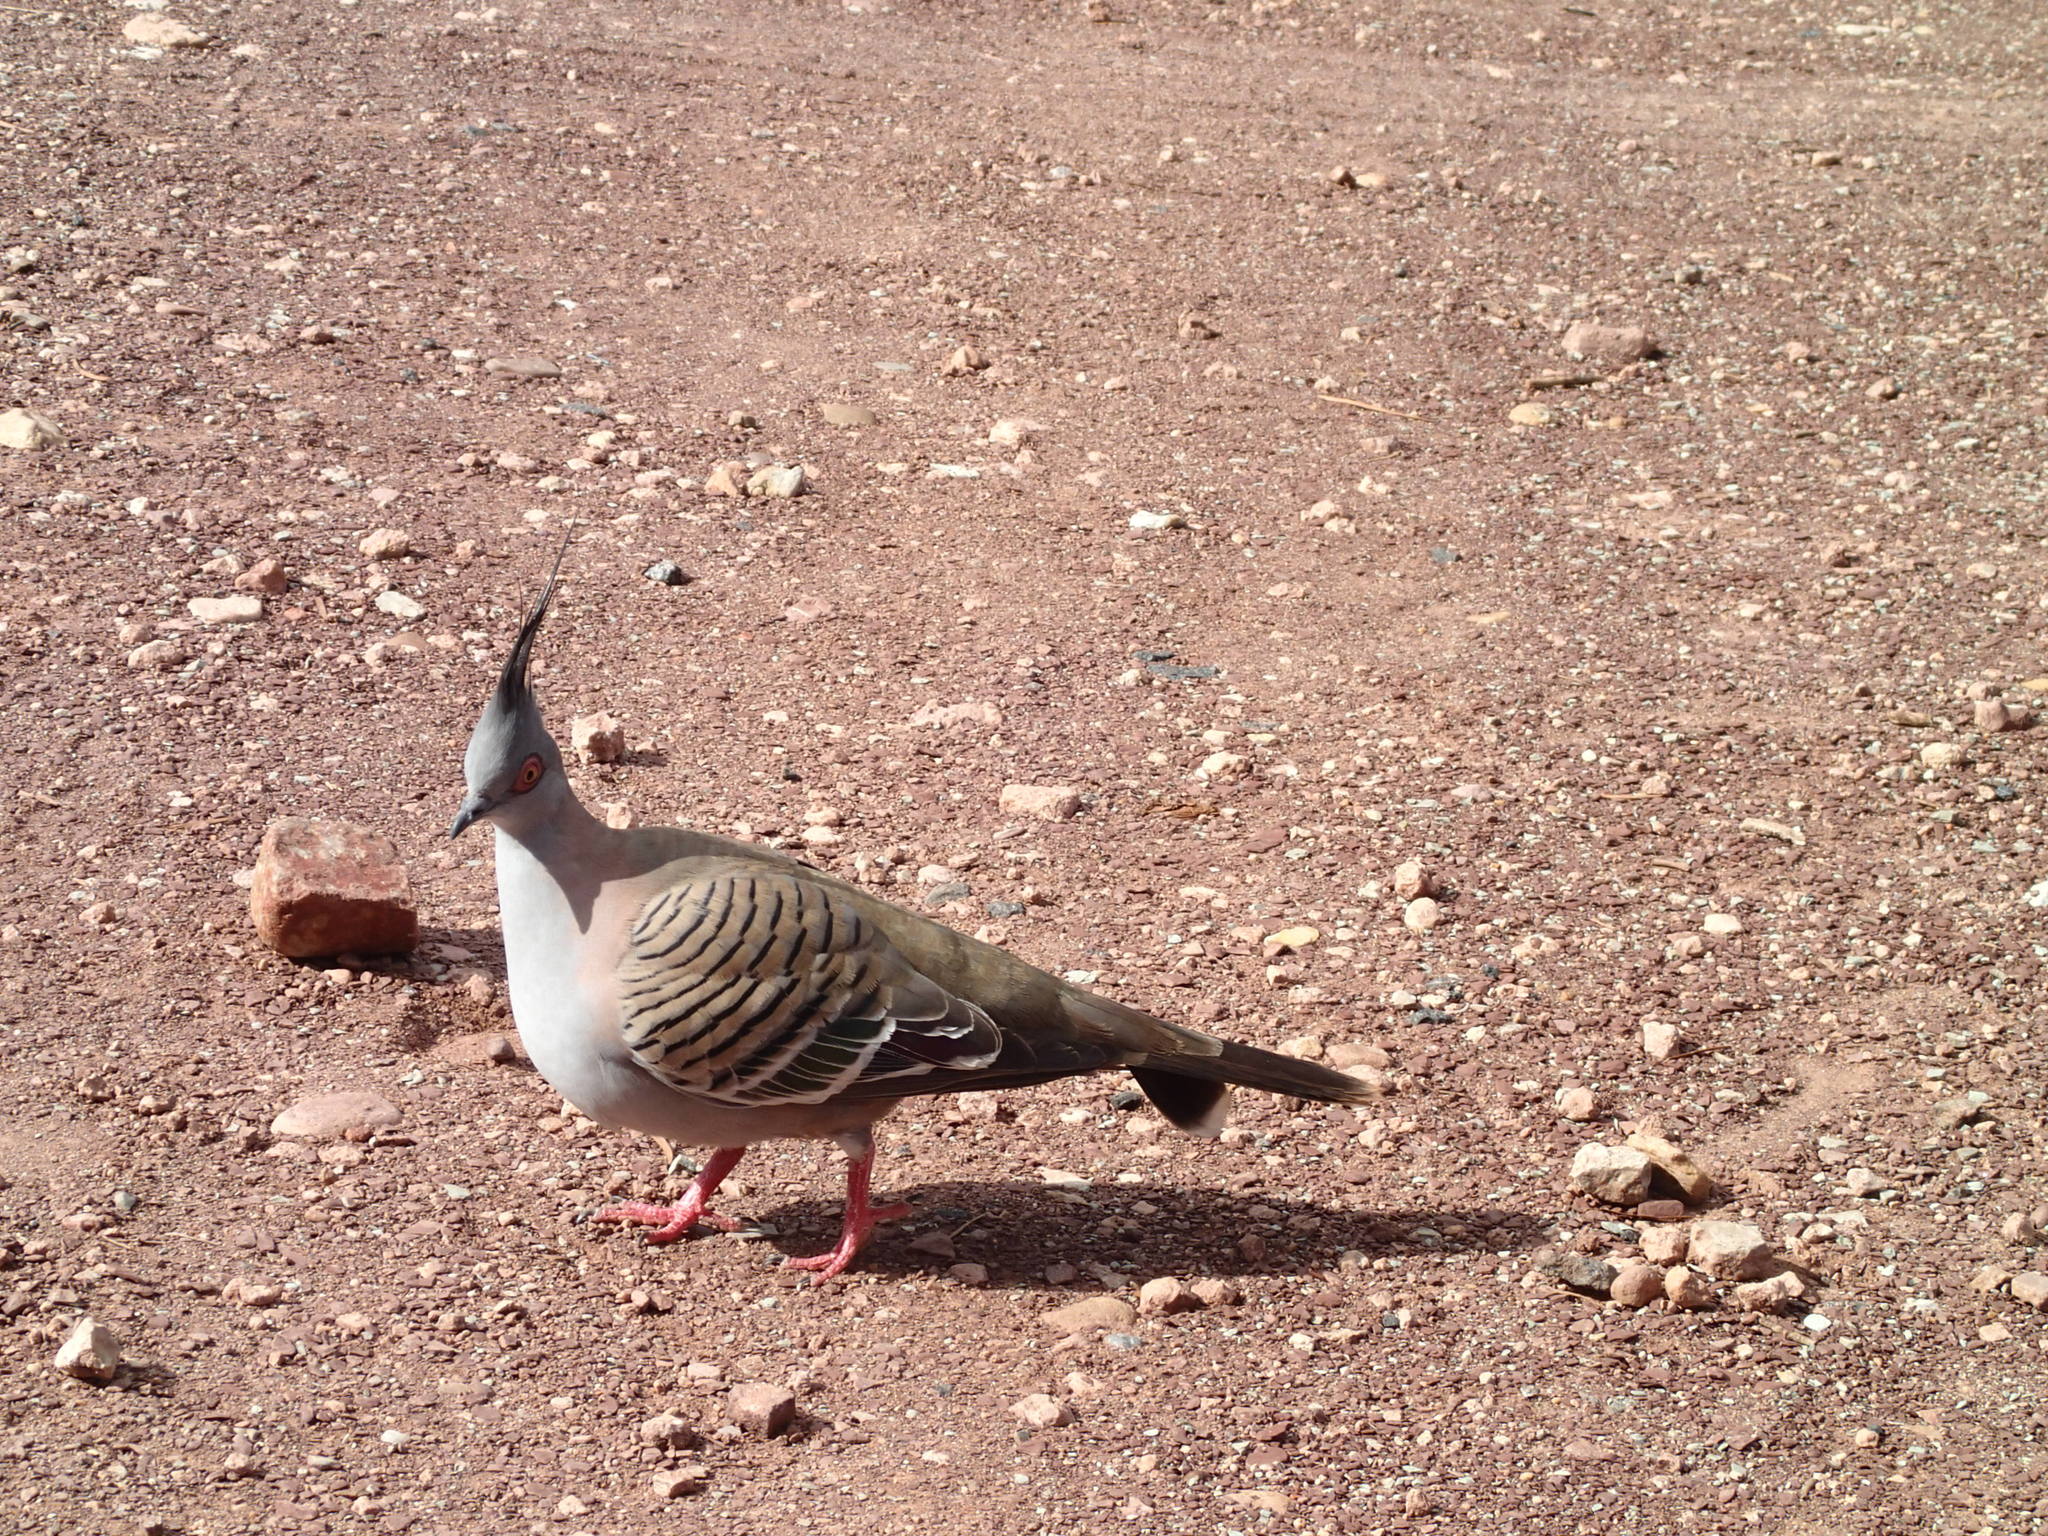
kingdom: Animalia
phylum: Chordata
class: Aves
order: Columbiformes
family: Columbidae
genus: Ocyphaps
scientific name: Ocyphaps lophotes
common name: Crested pigeon
